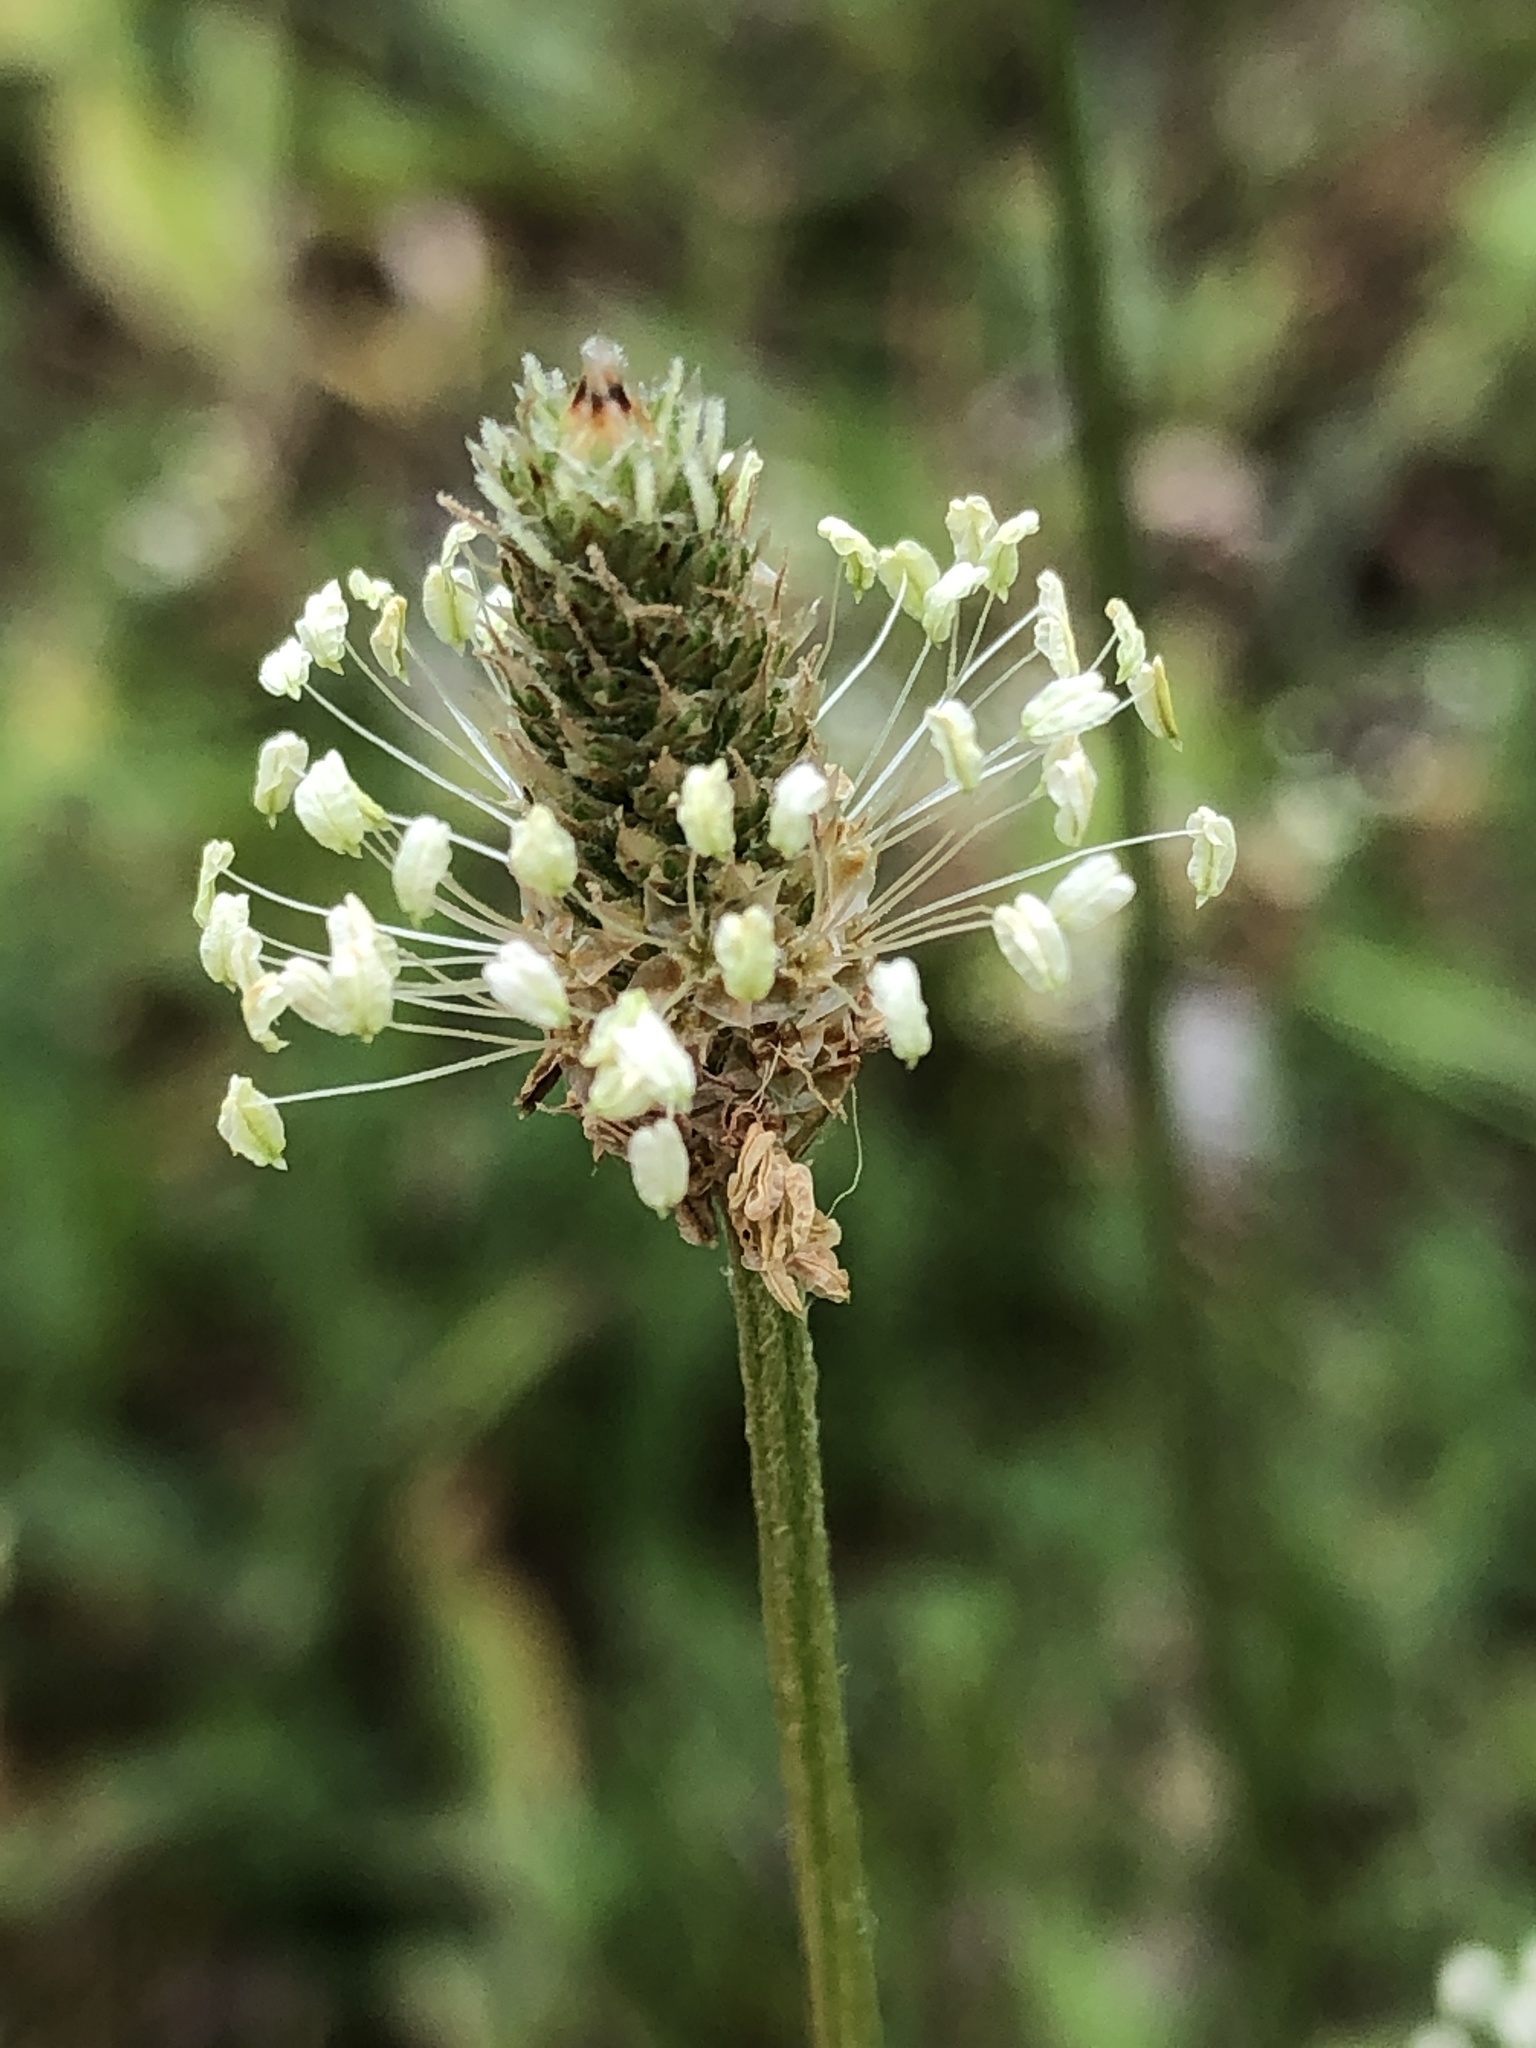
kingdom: Plantae
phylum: Tracheophyta
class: Magnoliopsida
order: Lamiales
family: Plantaginaceae
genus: Plantago
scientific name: Plantago lanceolata
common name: Ribwort plantain
